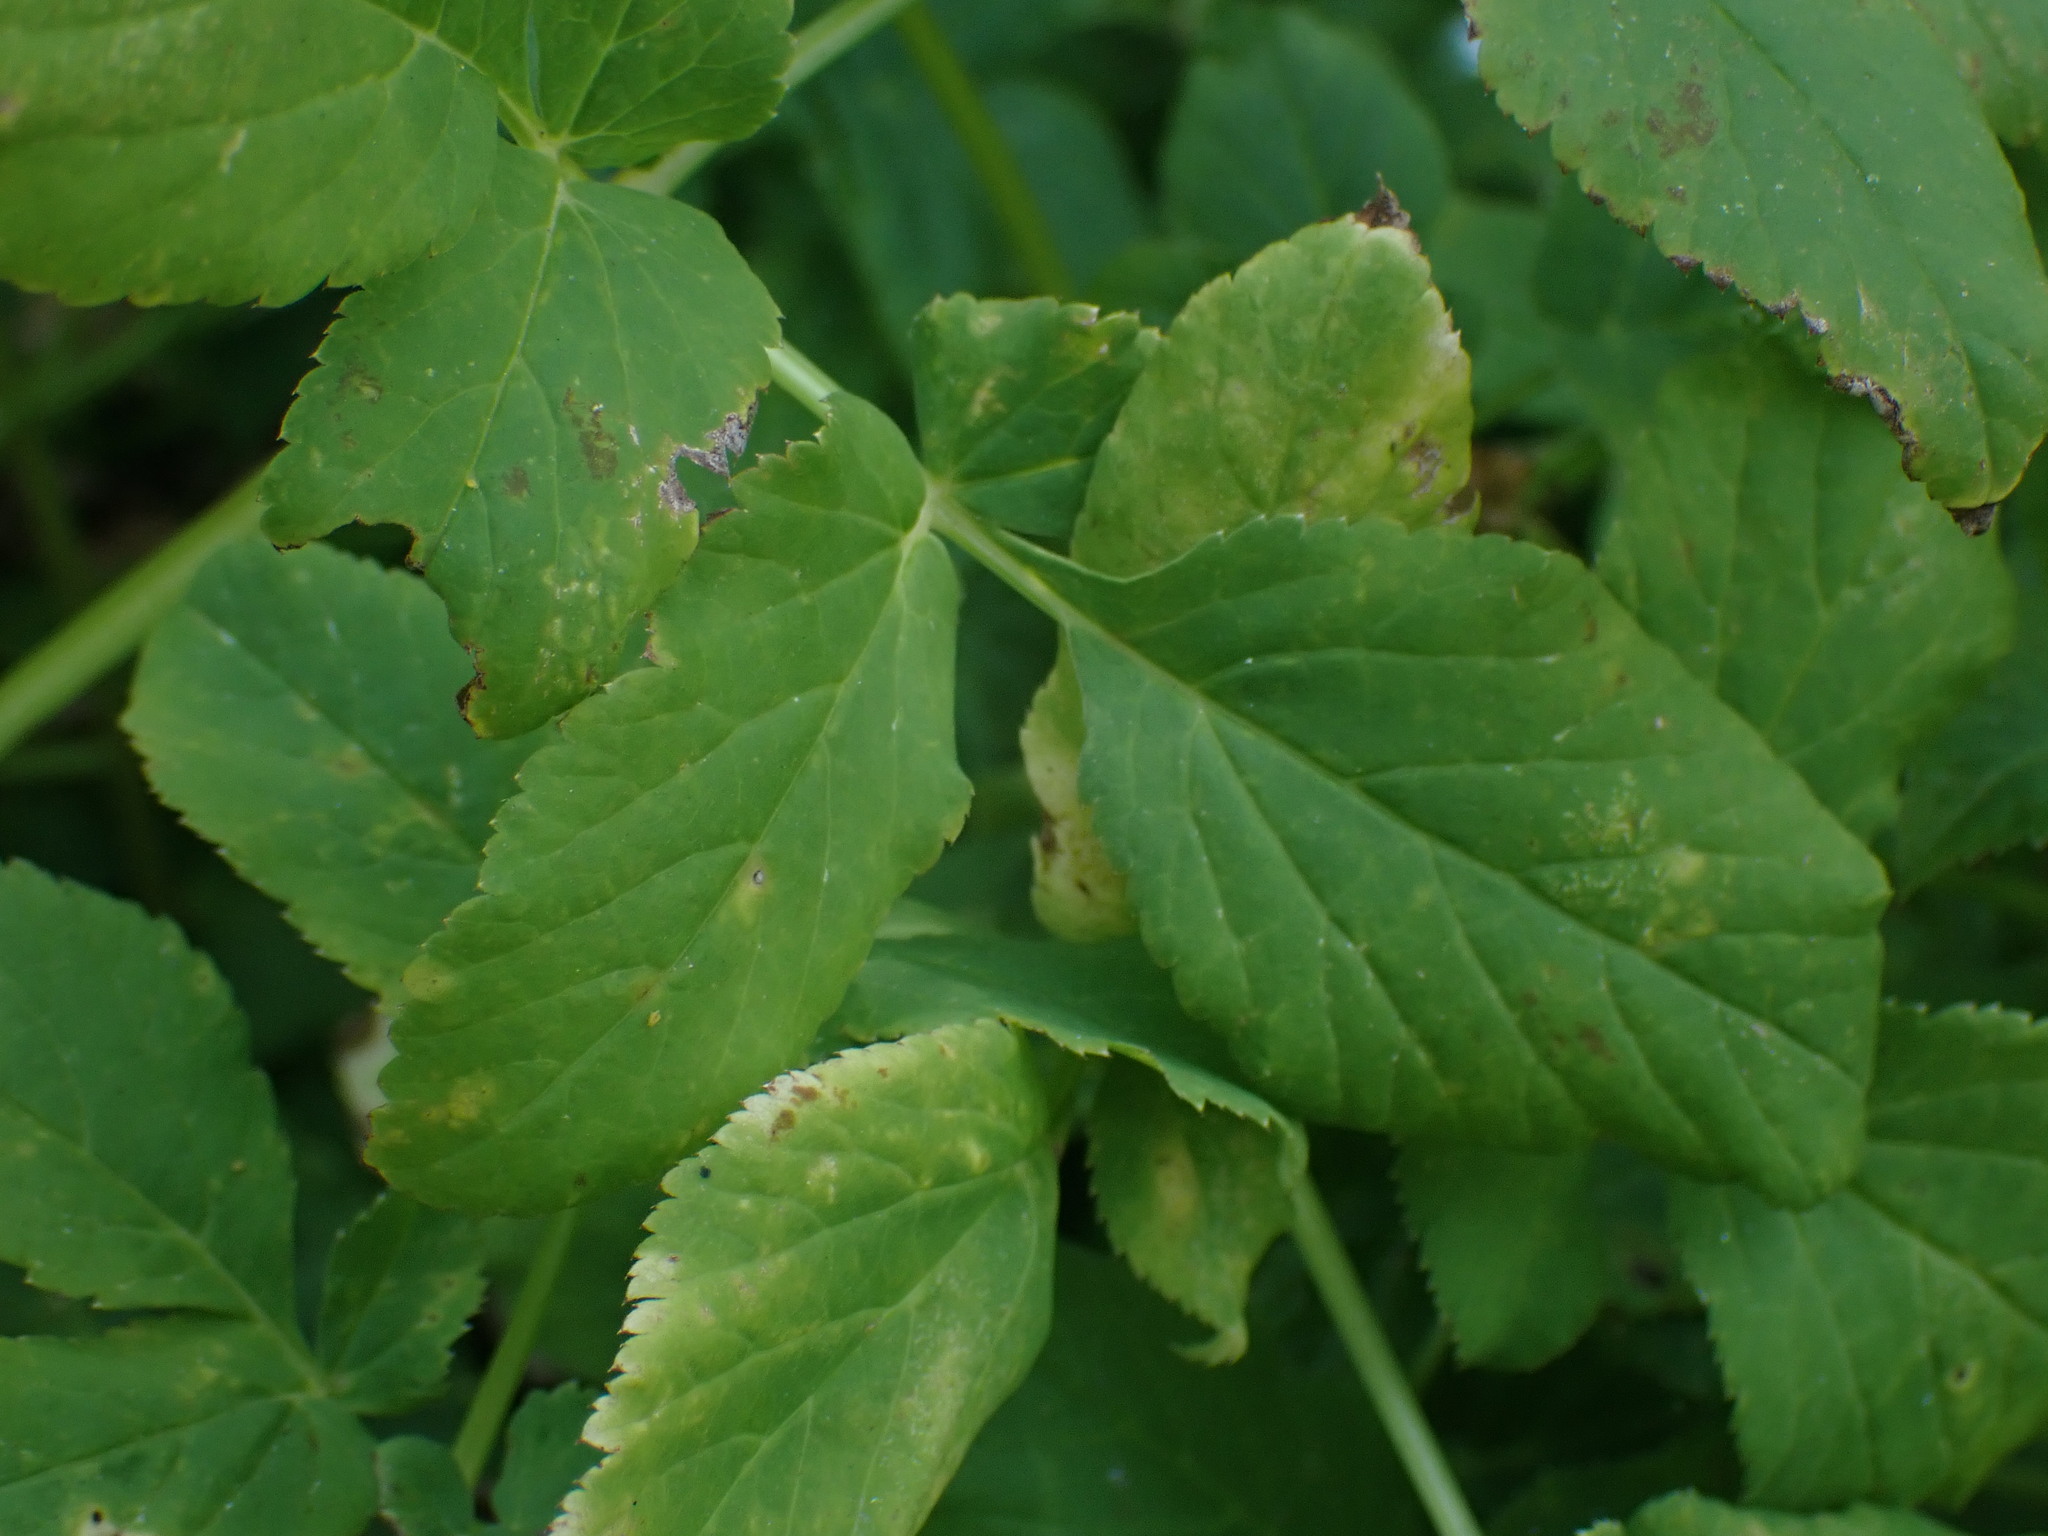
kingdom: Plantae
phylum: Tracheophyta
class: Magnoliopsida
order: Apiales
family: Apiaceae
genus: Aegopodium
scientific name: Aegopodium podagraria
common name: Ground-elder
